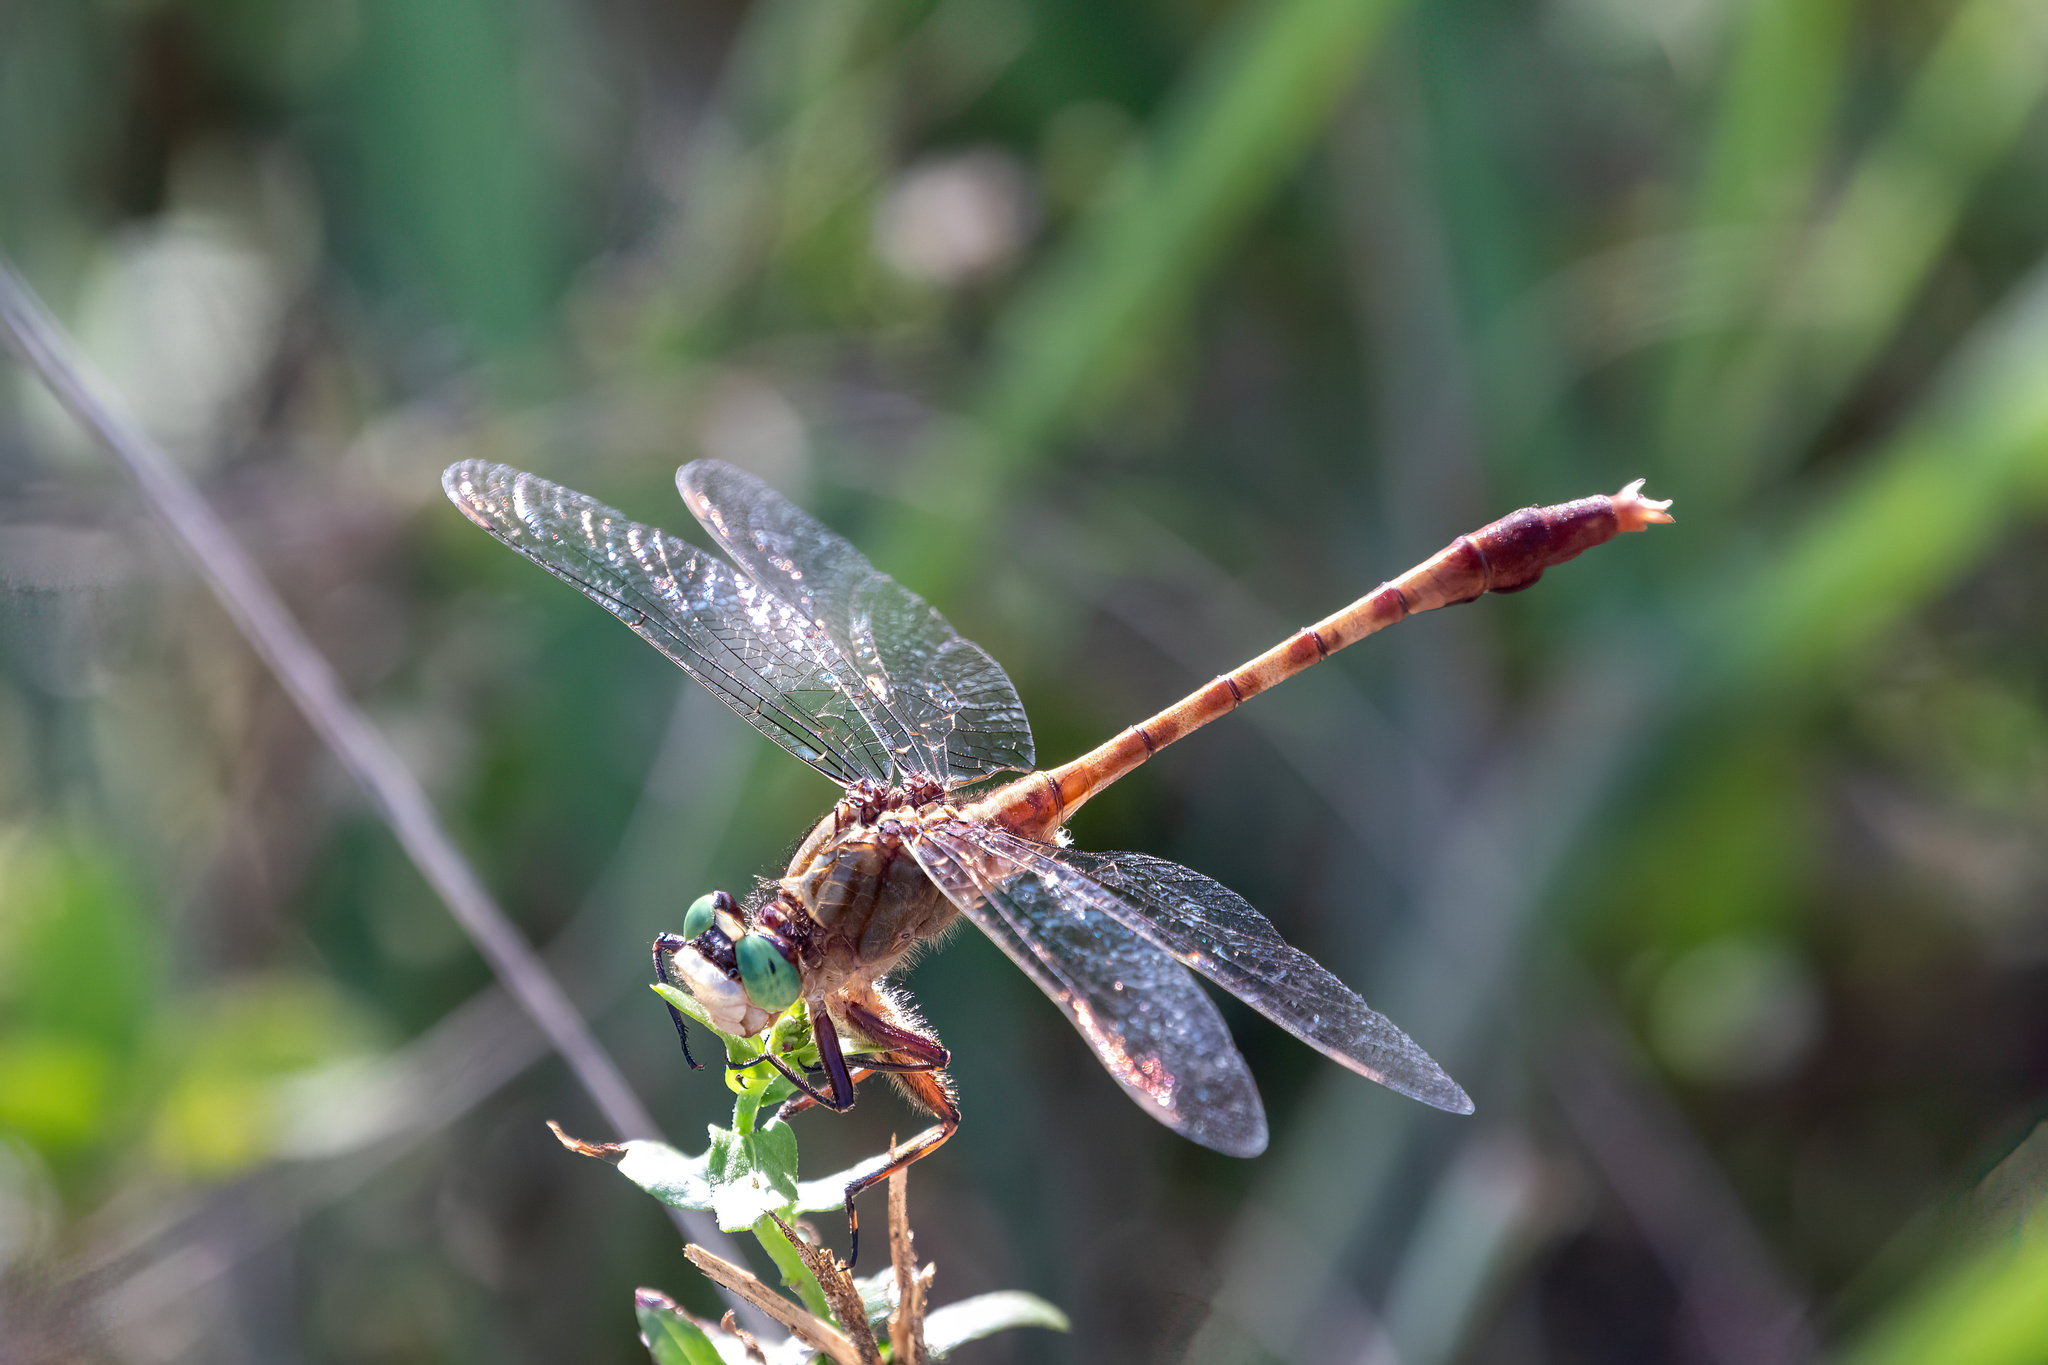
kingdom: Animalia
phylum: Arthropoda
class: Insecta
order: Odonata
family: Gomphidae
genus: Arigomphus
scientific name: Arigomphus pallidus
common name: Gray-green clubtail
